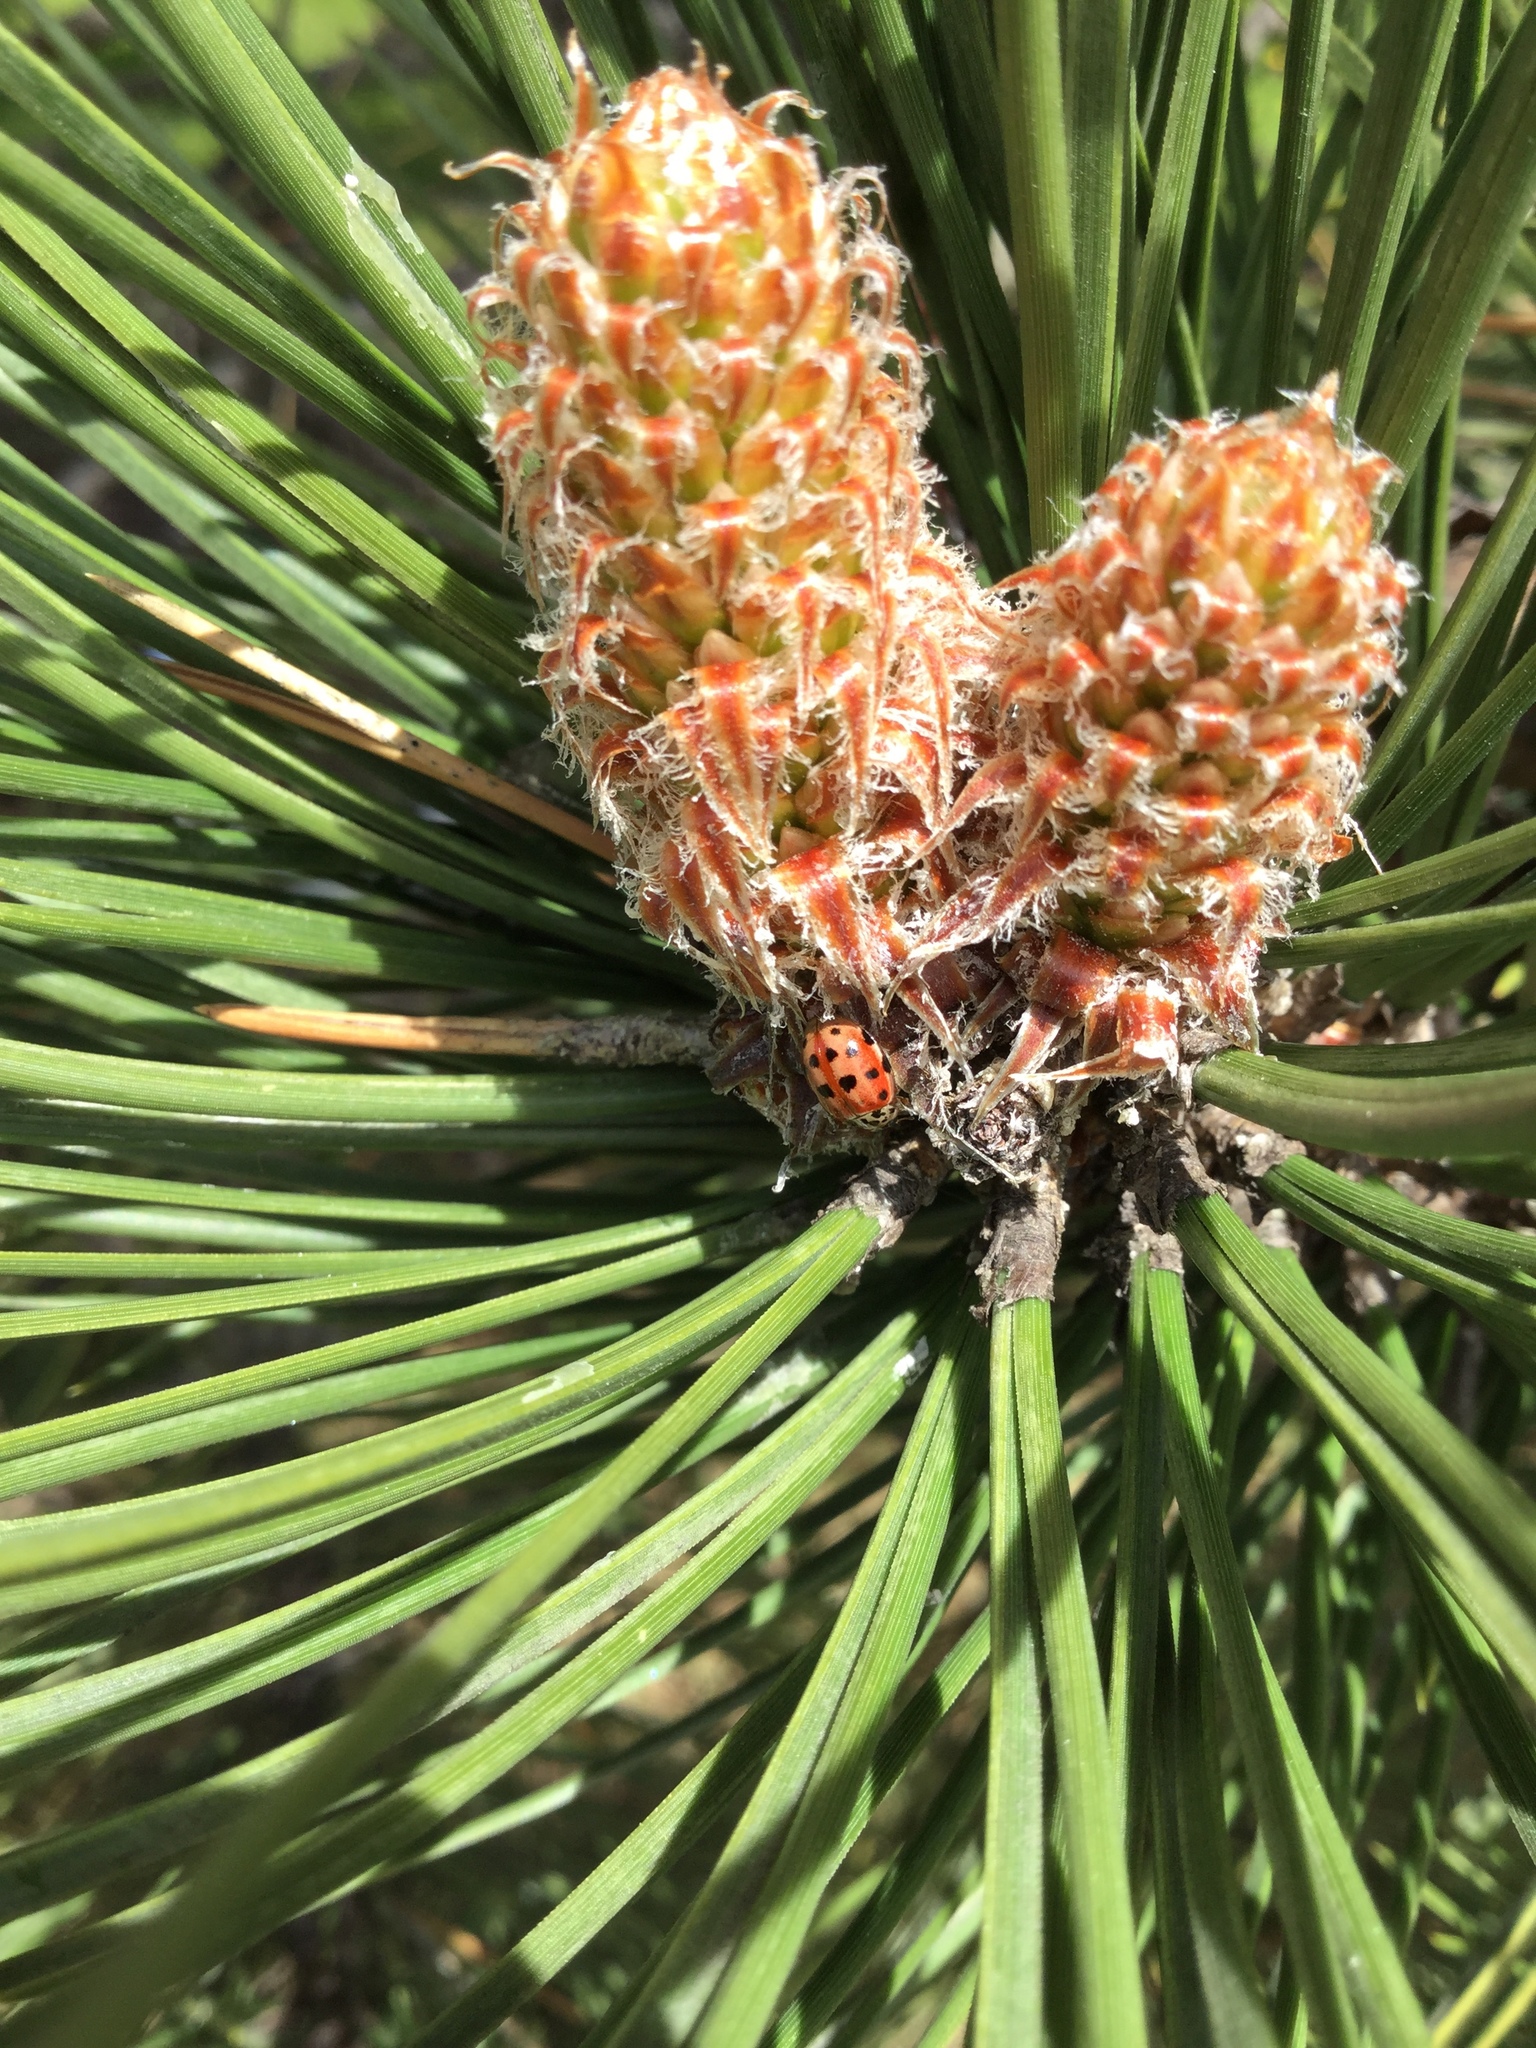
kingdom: Animalia
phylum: Arthropoda
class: Insecta
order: Coleoptera
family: Coccinellidae
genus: Harmonia
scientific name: Harmonia quadripunctata
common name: Cream-streaked ladybird
